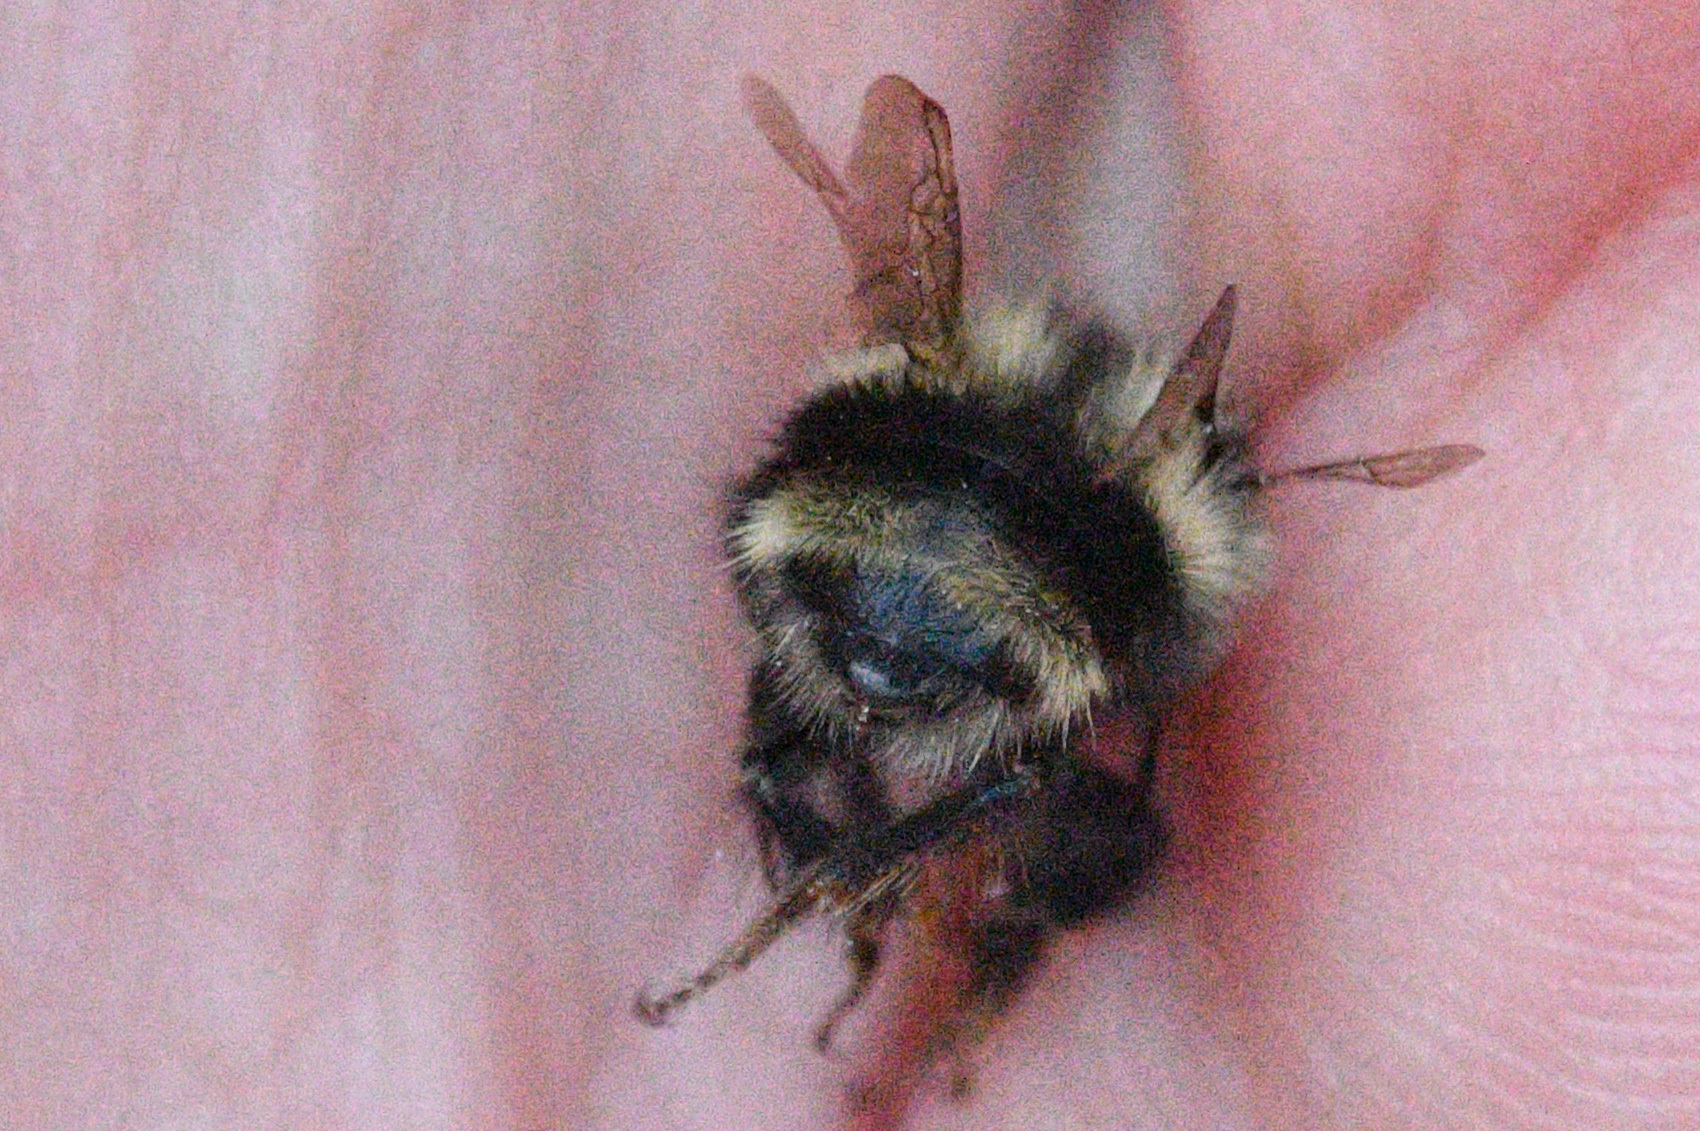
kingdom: Animalia
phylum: Arthropoda
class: Insecta
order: Hymenoptera
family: Apidae
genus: Bombus
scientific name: Bombus vancouverensis
